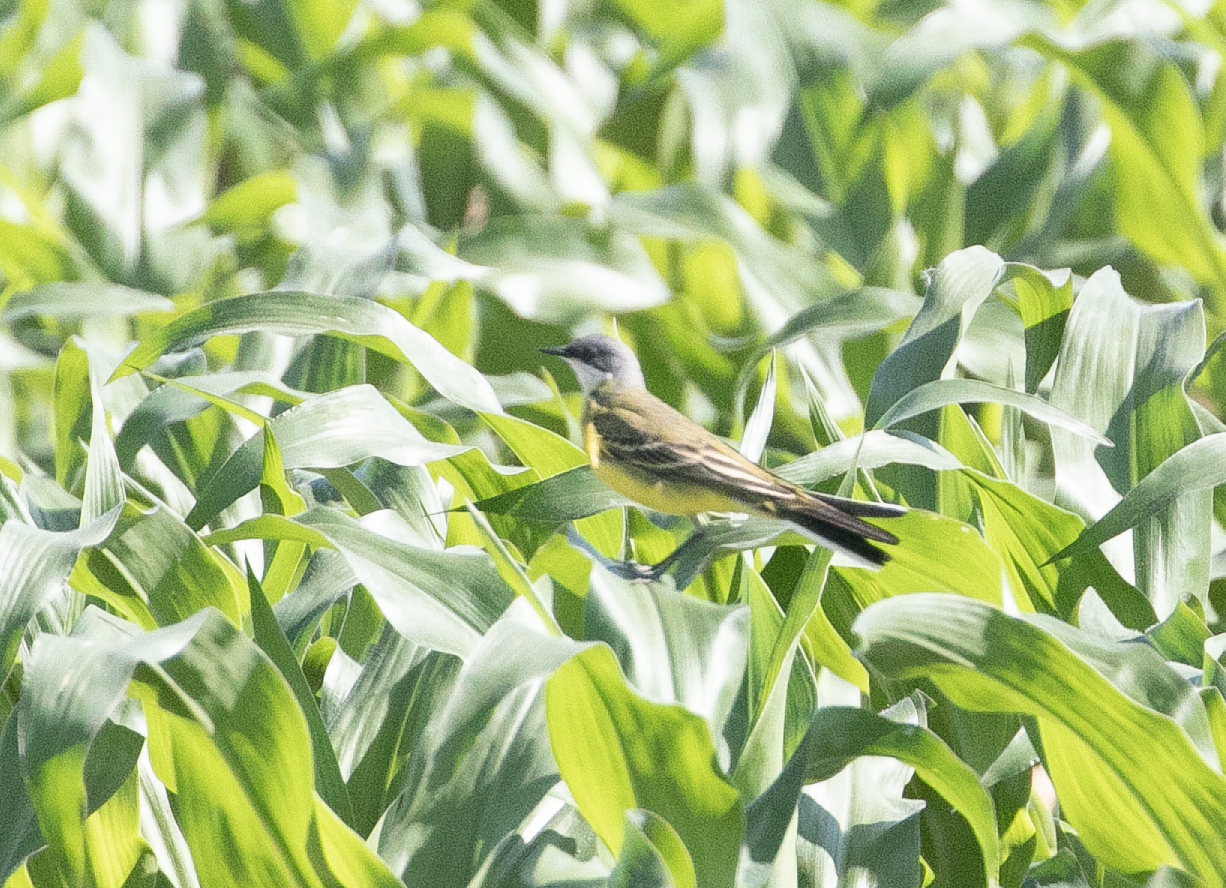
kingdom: Animalia
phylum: Chordata
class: Aves
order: Passeriformes
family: Motacillidae
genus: Motacilla
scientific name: Motacilla flava
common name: Western yellow wagtail
